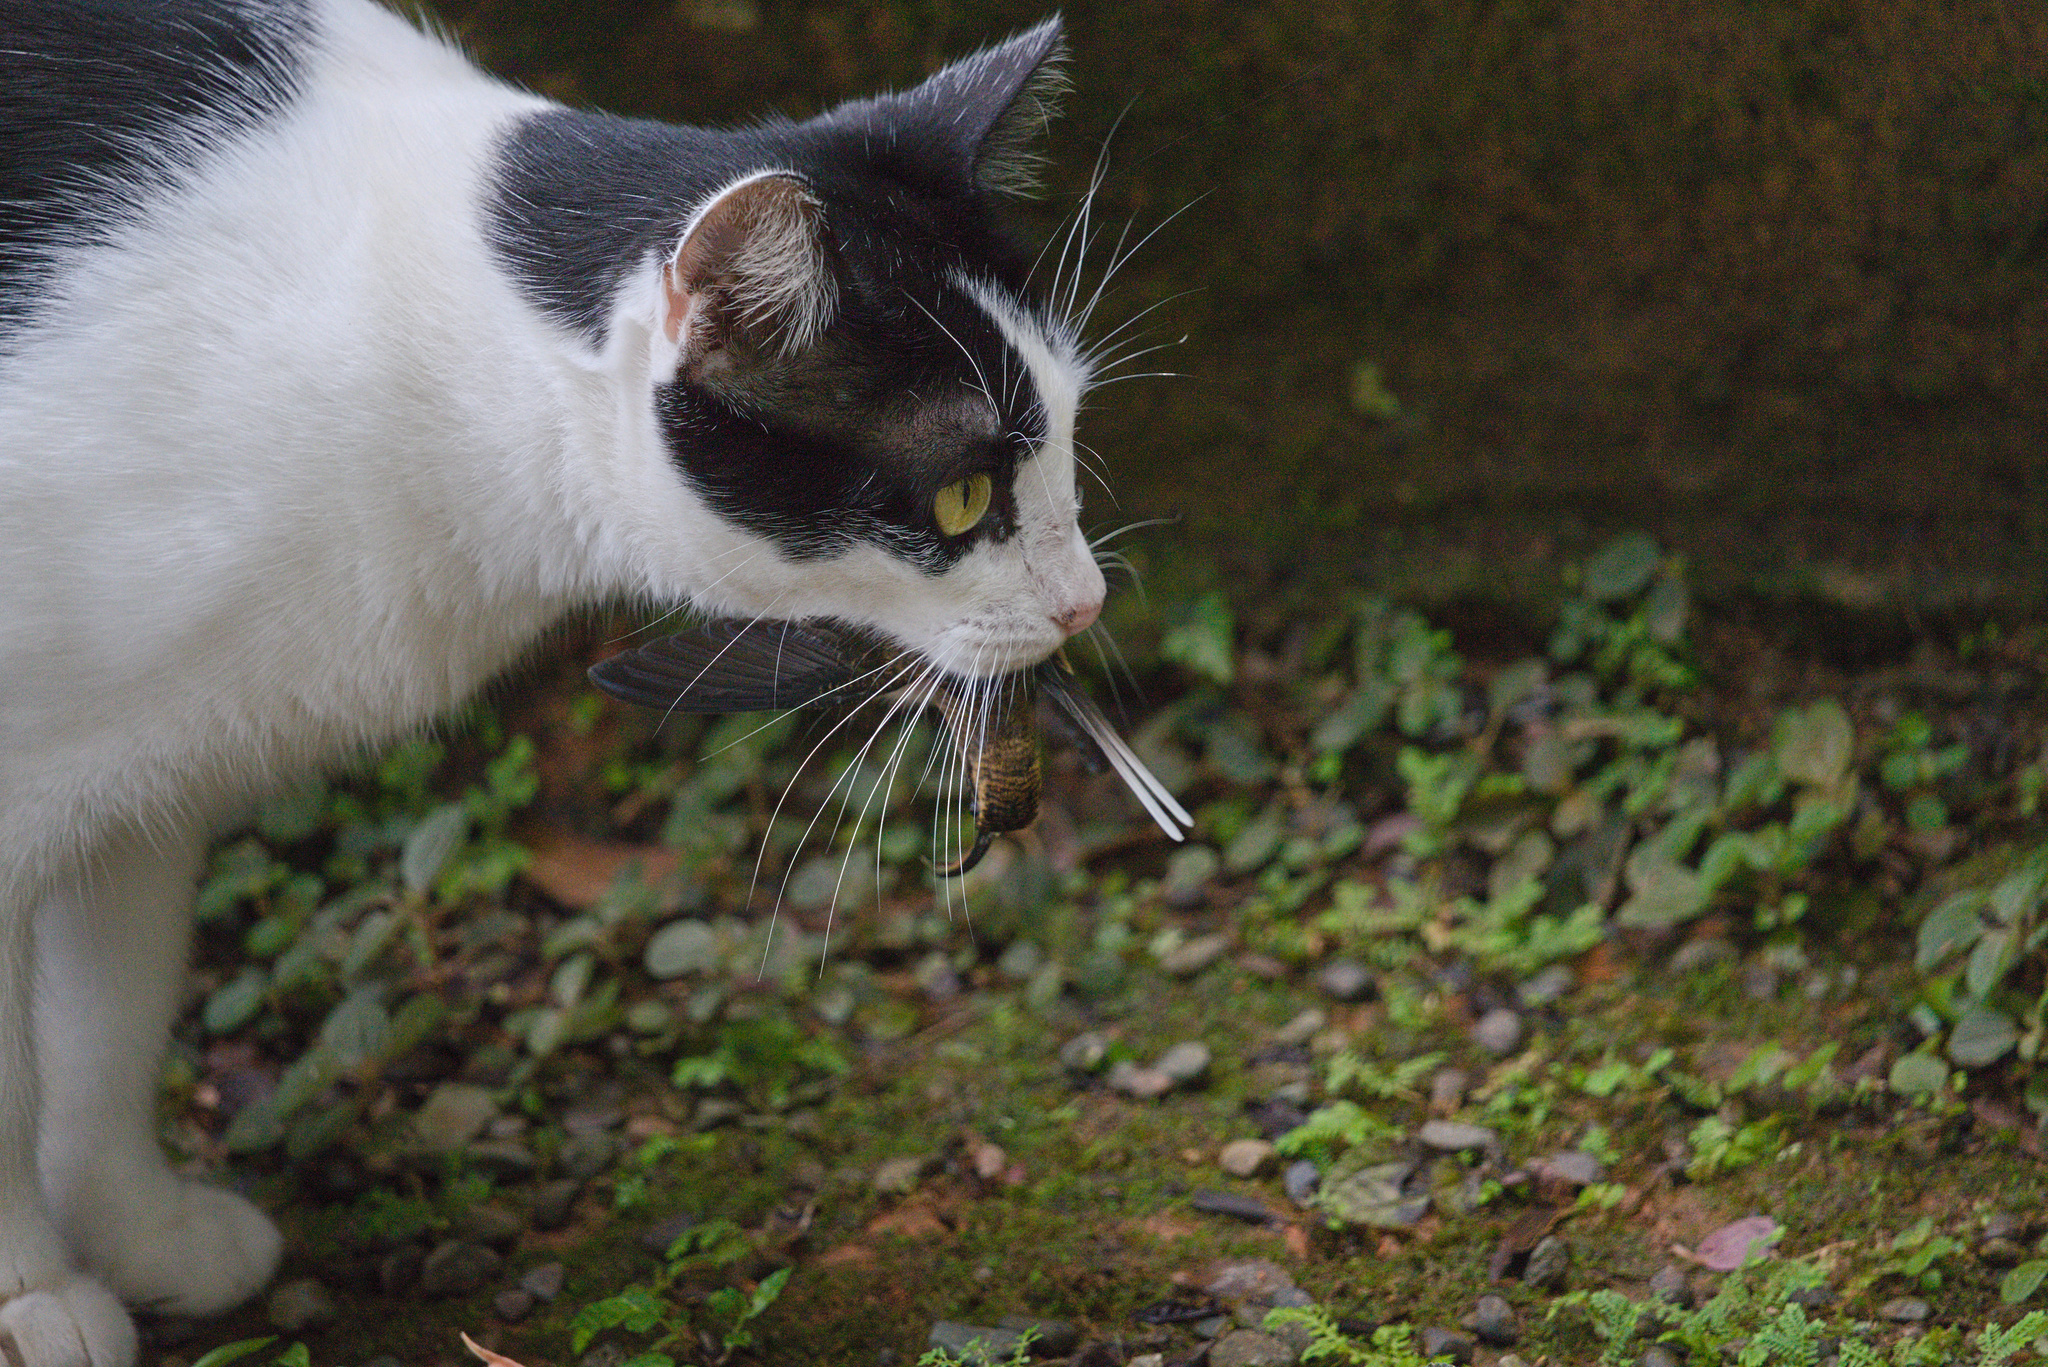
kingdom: Animalia
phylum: Chordata
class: Aves
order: Apodiformes
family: Trochilidae
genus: Phaethornis
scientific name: Phaethornis longirostris
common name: Long-billed hermit
